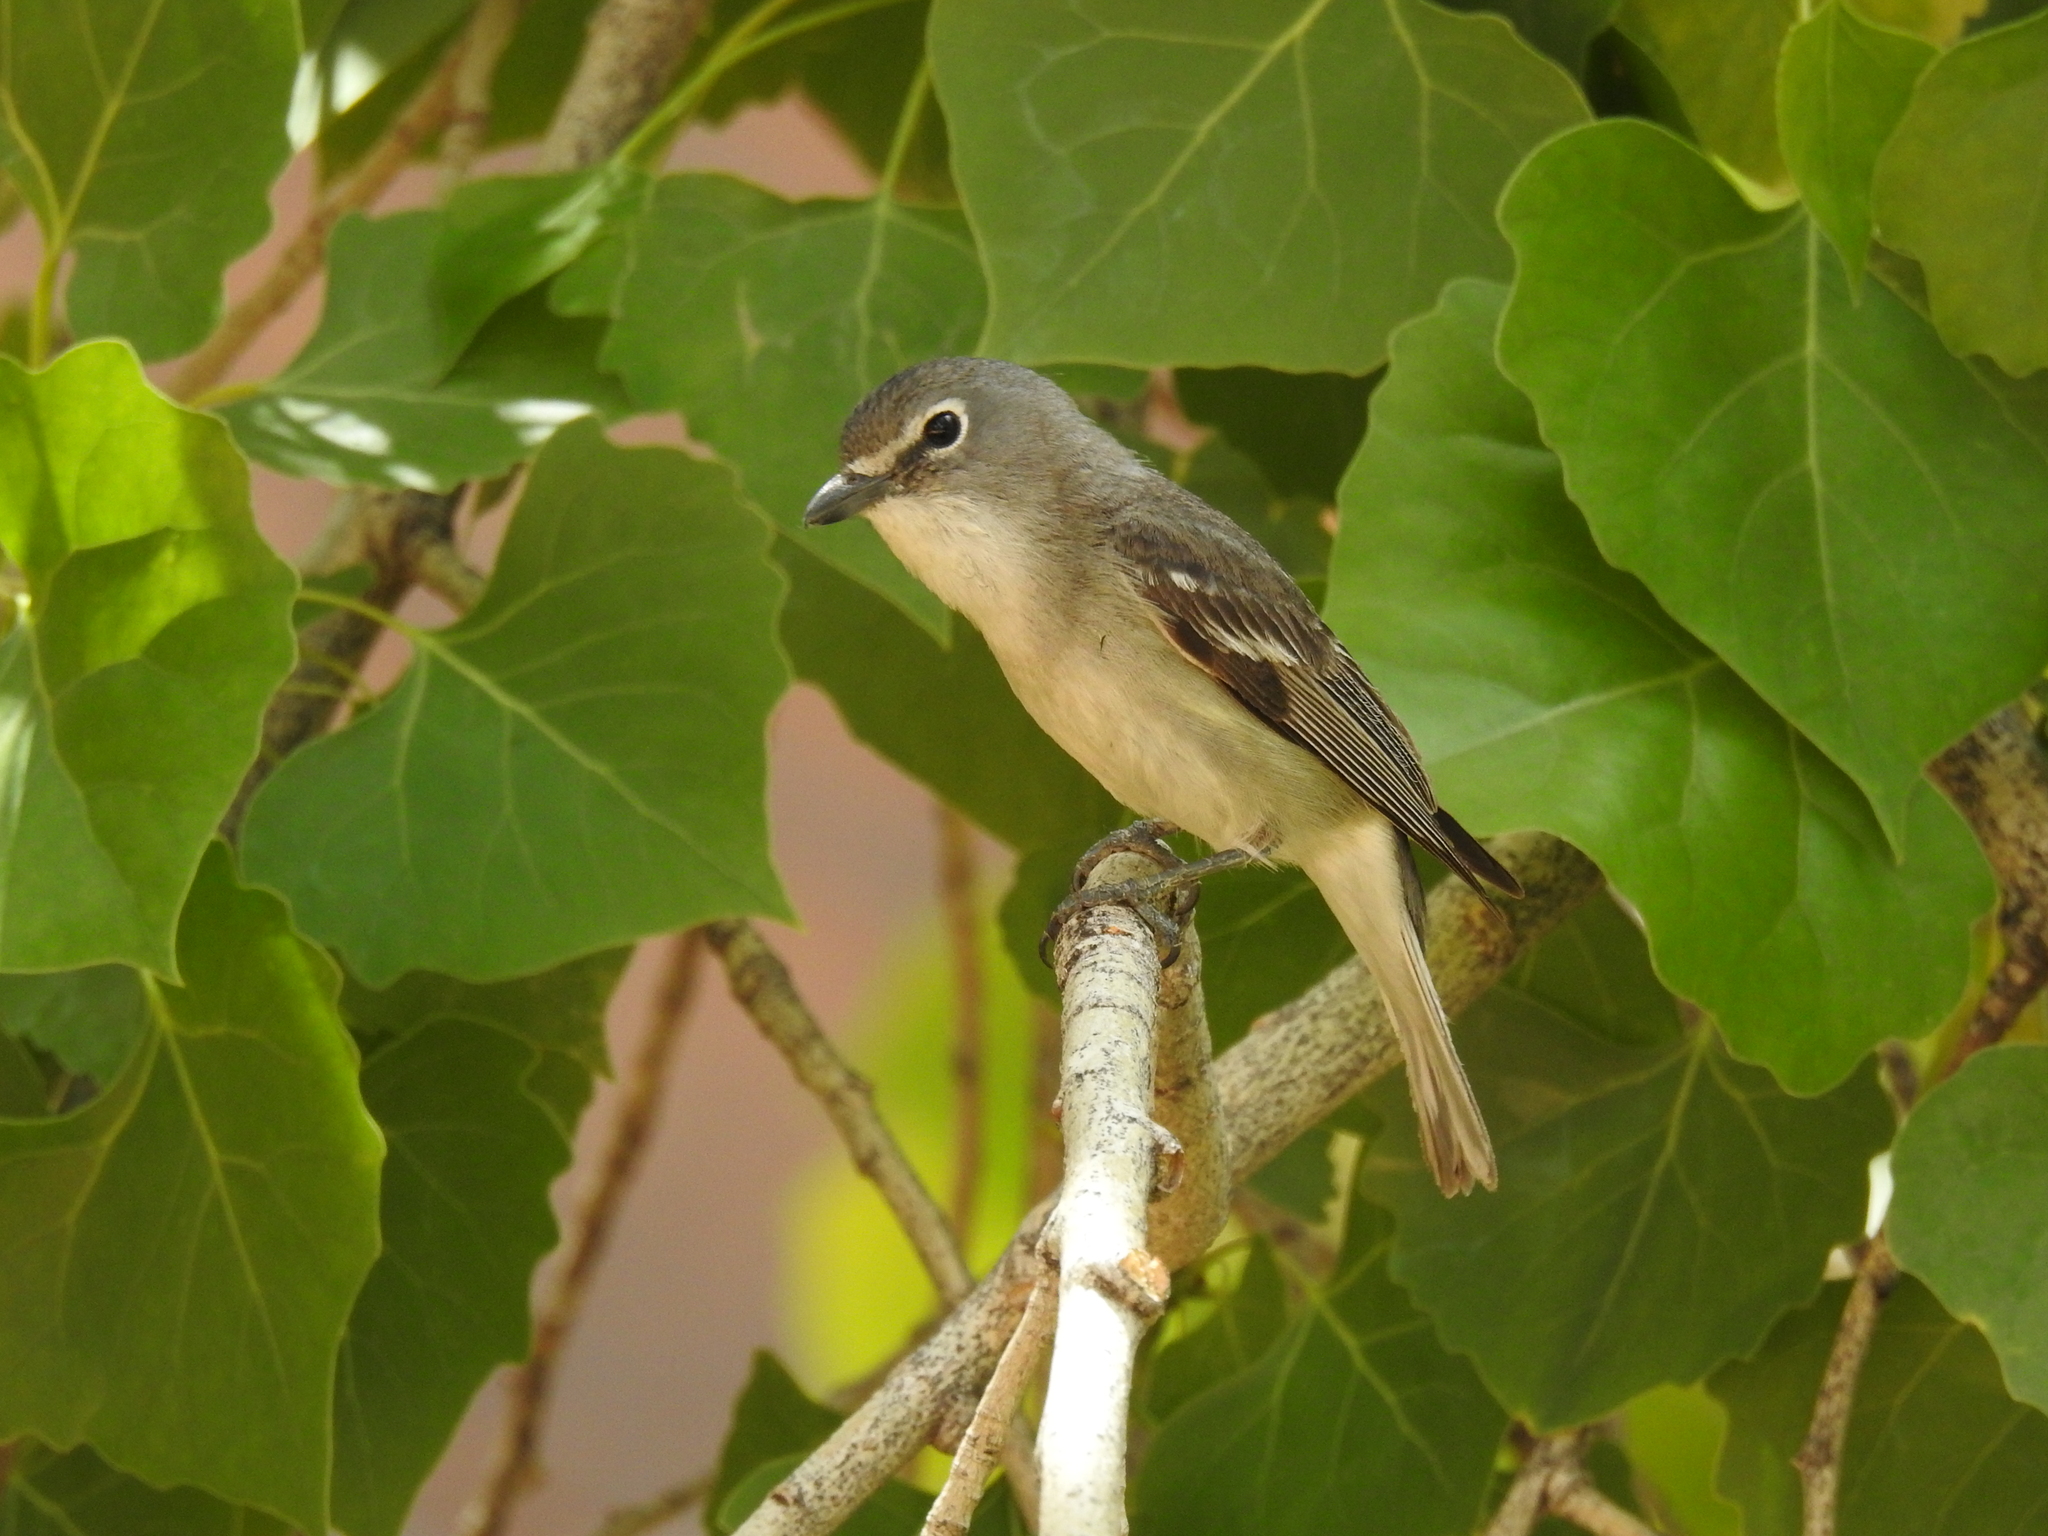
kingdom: Animalia
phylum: Chordata
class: Aves
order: Passeriformes
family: Vireonidae
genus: Vireo
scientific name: Vireo plumbeus
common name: Plumbeous vireo
